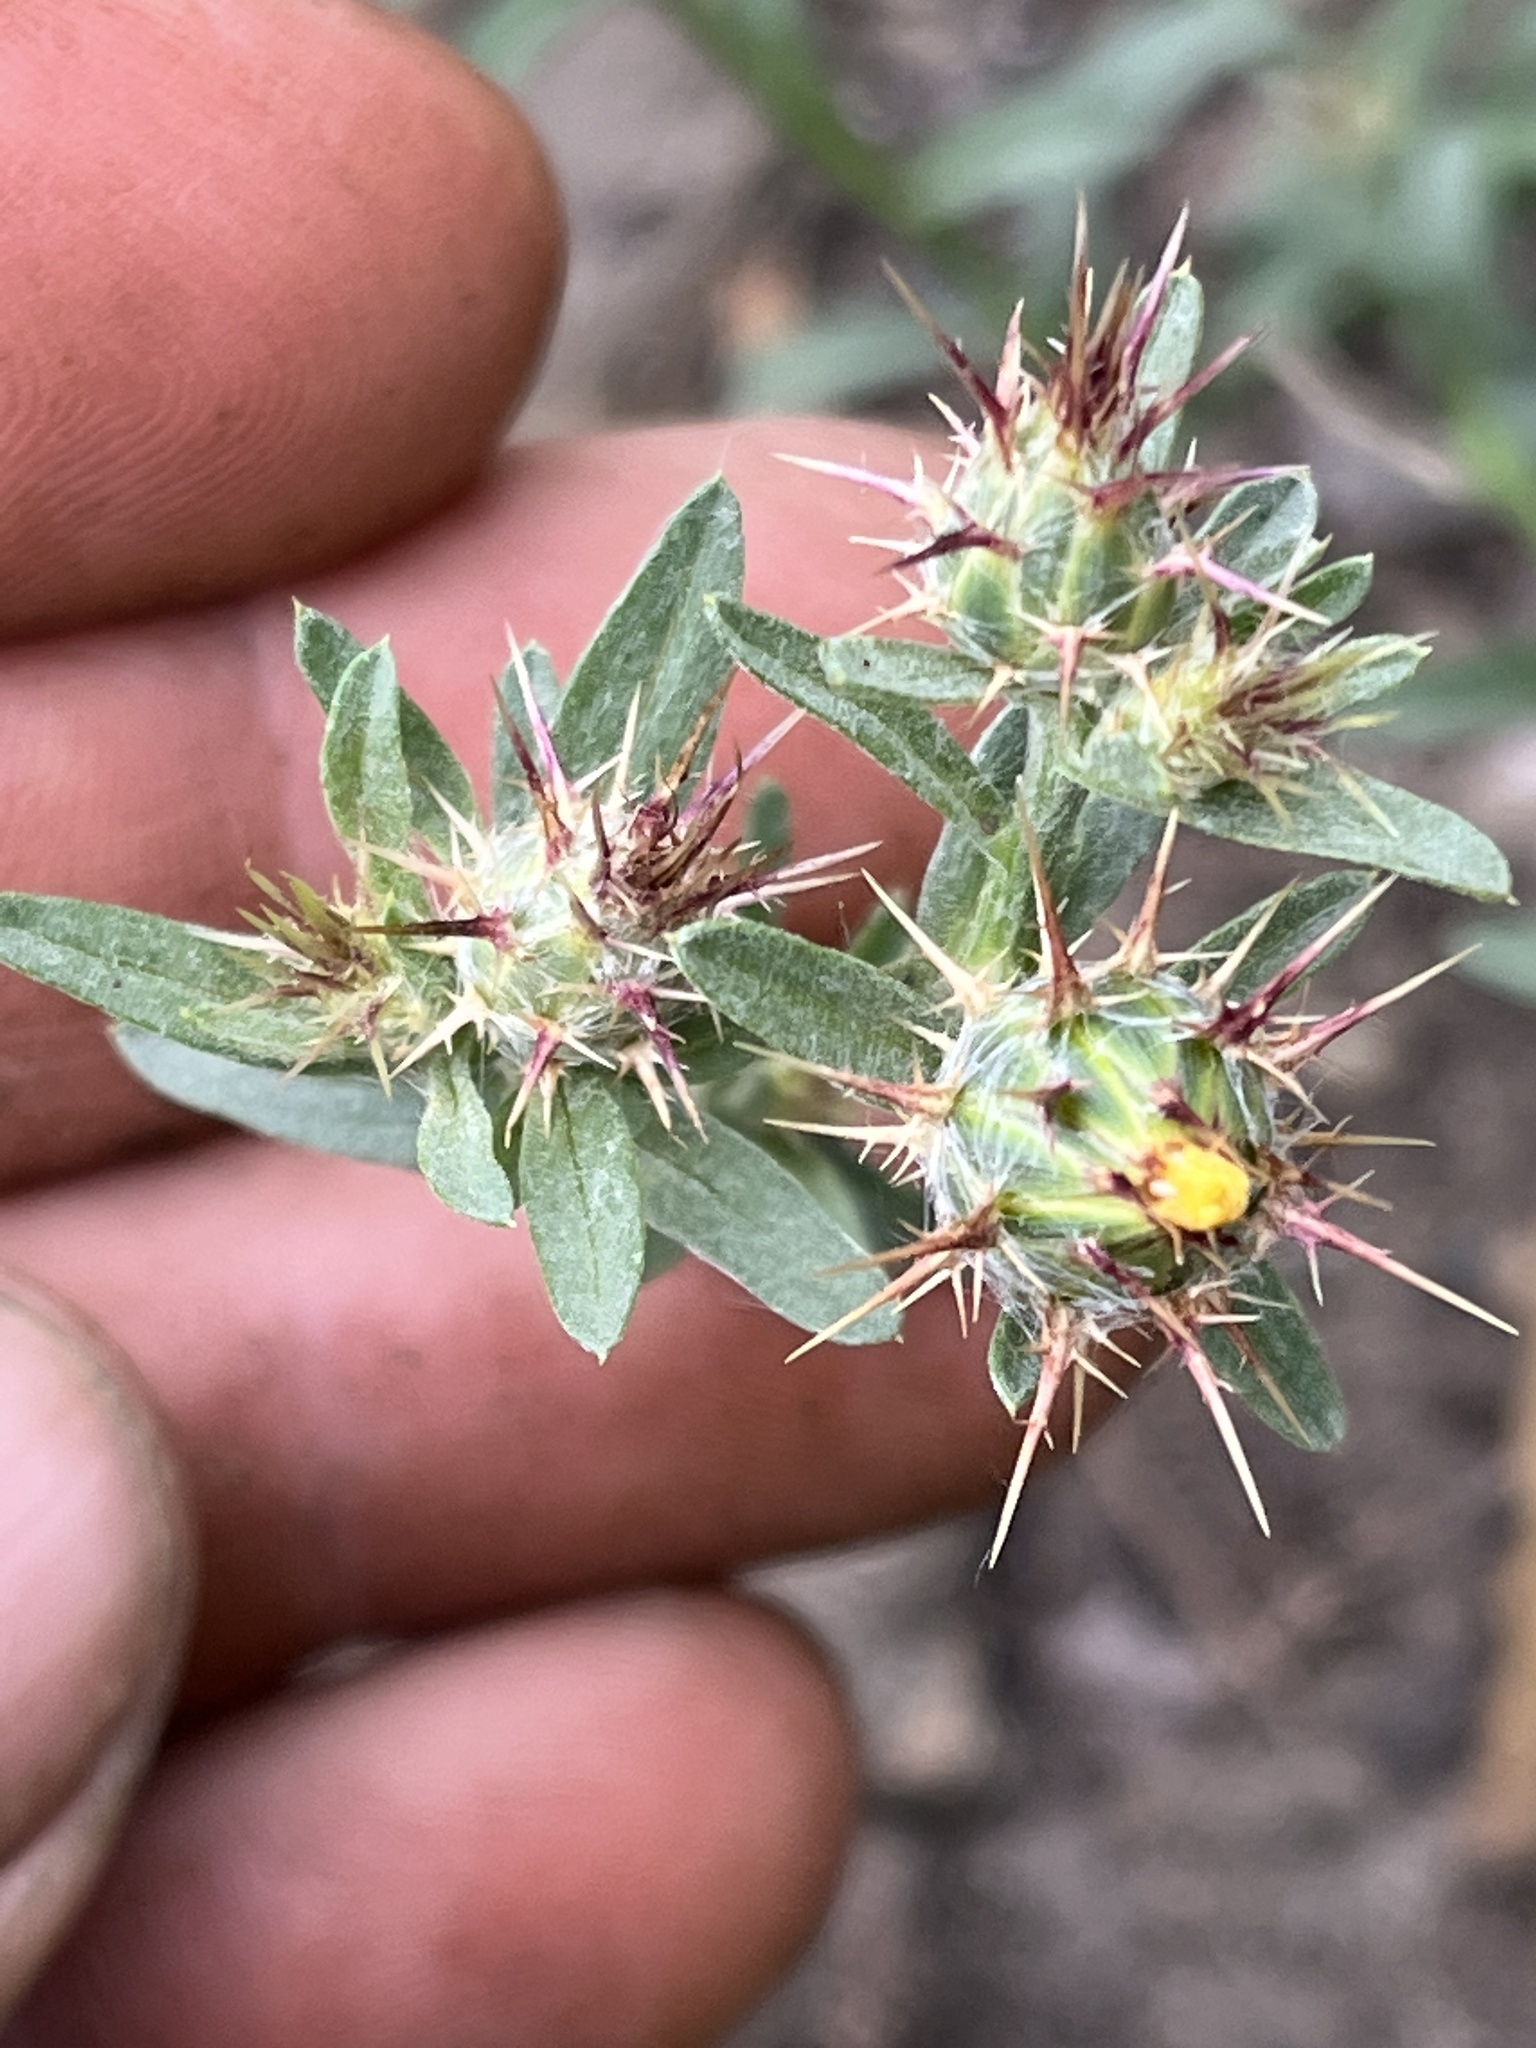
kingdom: Plantae
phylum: Tracheophyta
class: Magnoliopsida
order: Asterales
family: Asteraceae
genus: Centaurea
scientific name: Centaurea melitensis
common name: Maltese star-thistle
